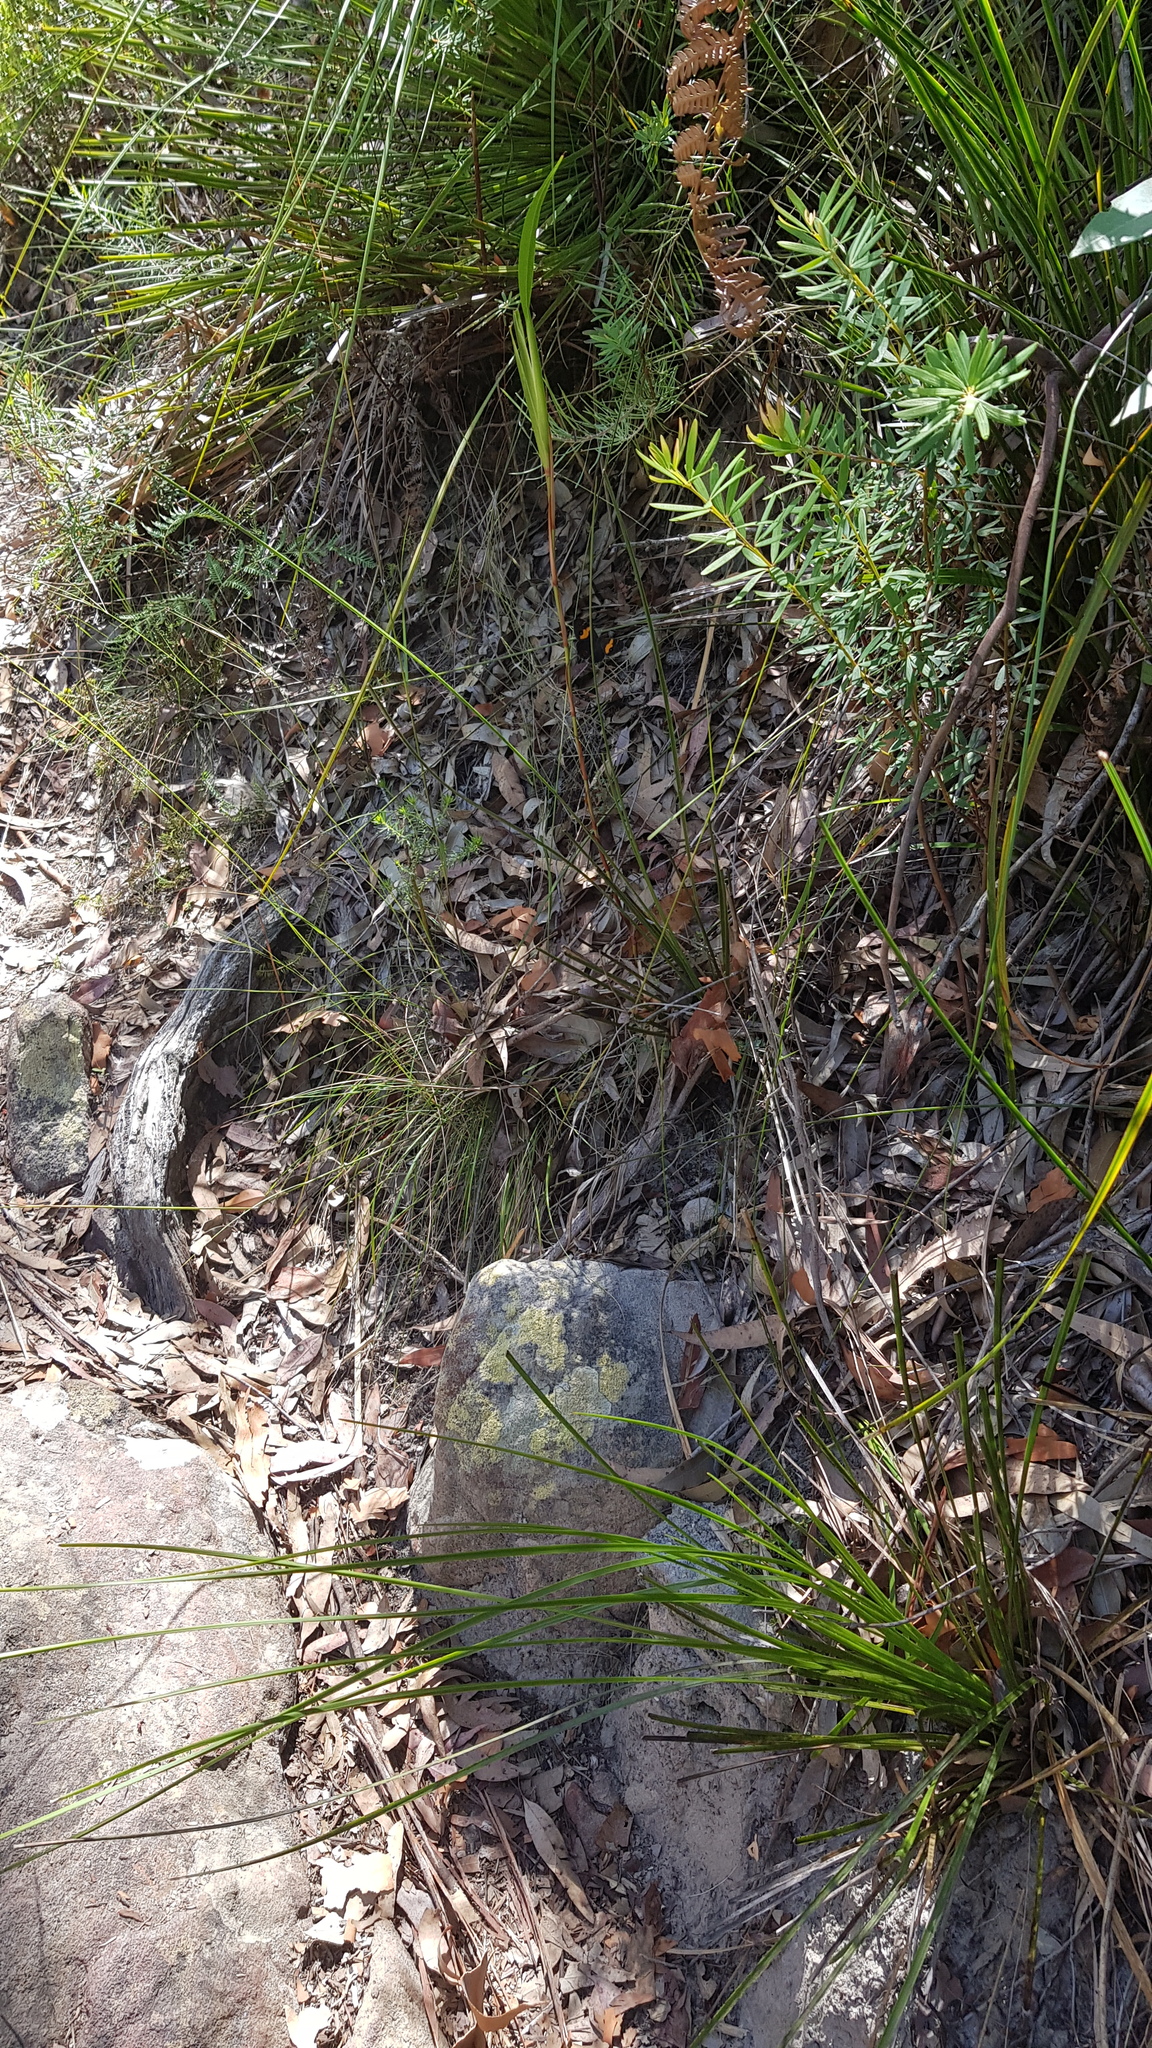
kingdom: Animalia
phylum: Arthropoda
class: Insecta
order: Lepidoptera
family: Nymphalidae
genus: Tisiphone
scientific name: Tisiphone abeona
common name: Swordgrass brown
